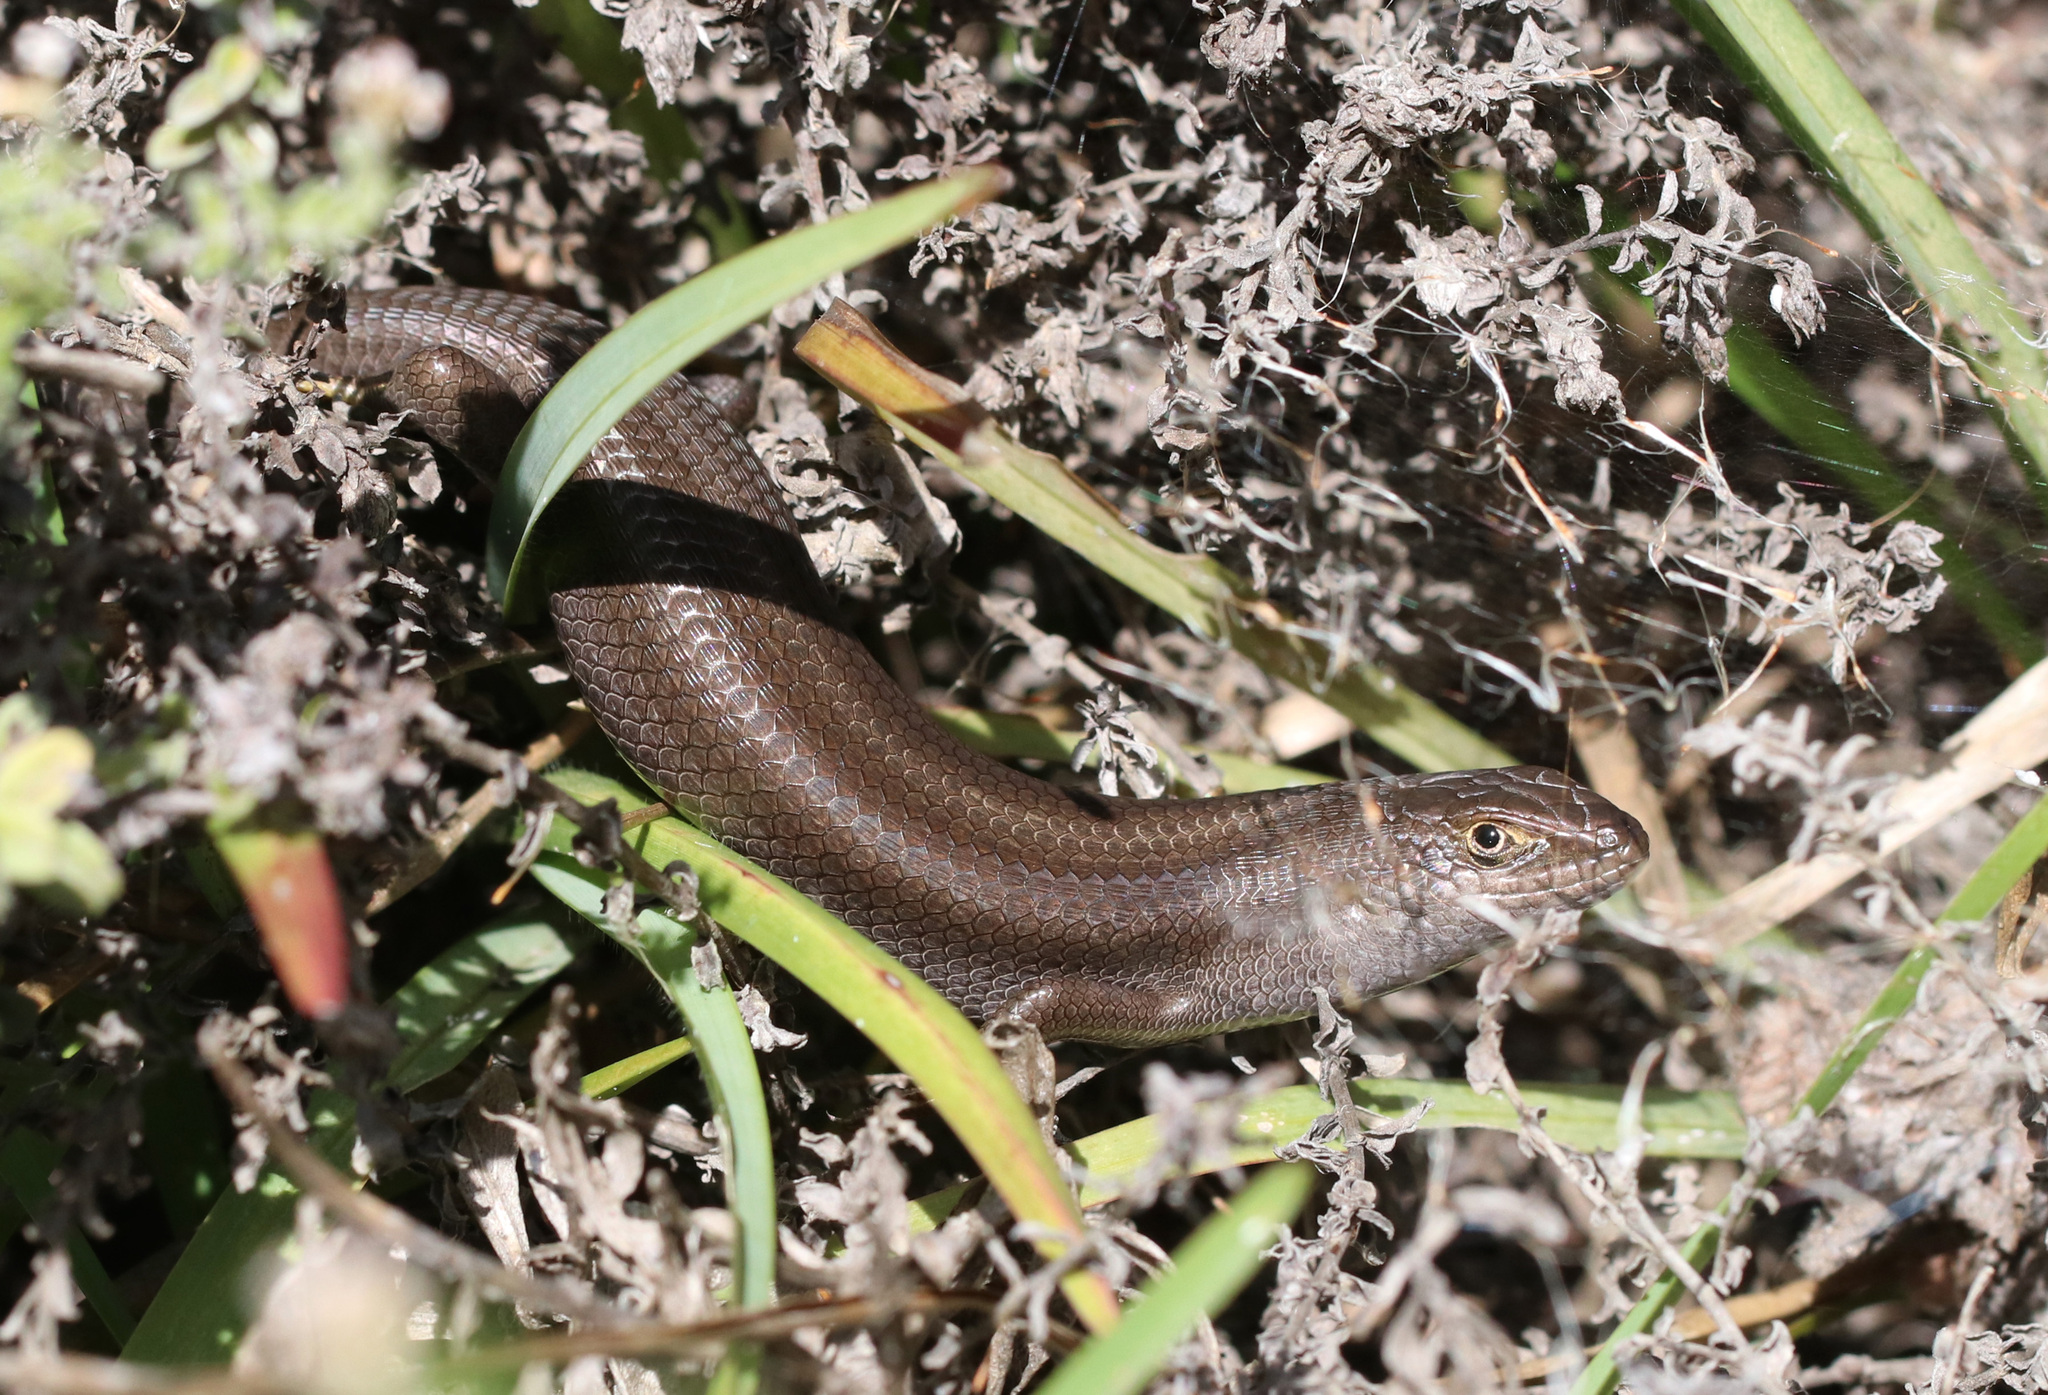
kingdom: Animalia
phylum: Chordata
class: Squamata
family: Scincidae
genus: Trachylepis
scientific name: Trachylepis capensis
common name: Cape skink
